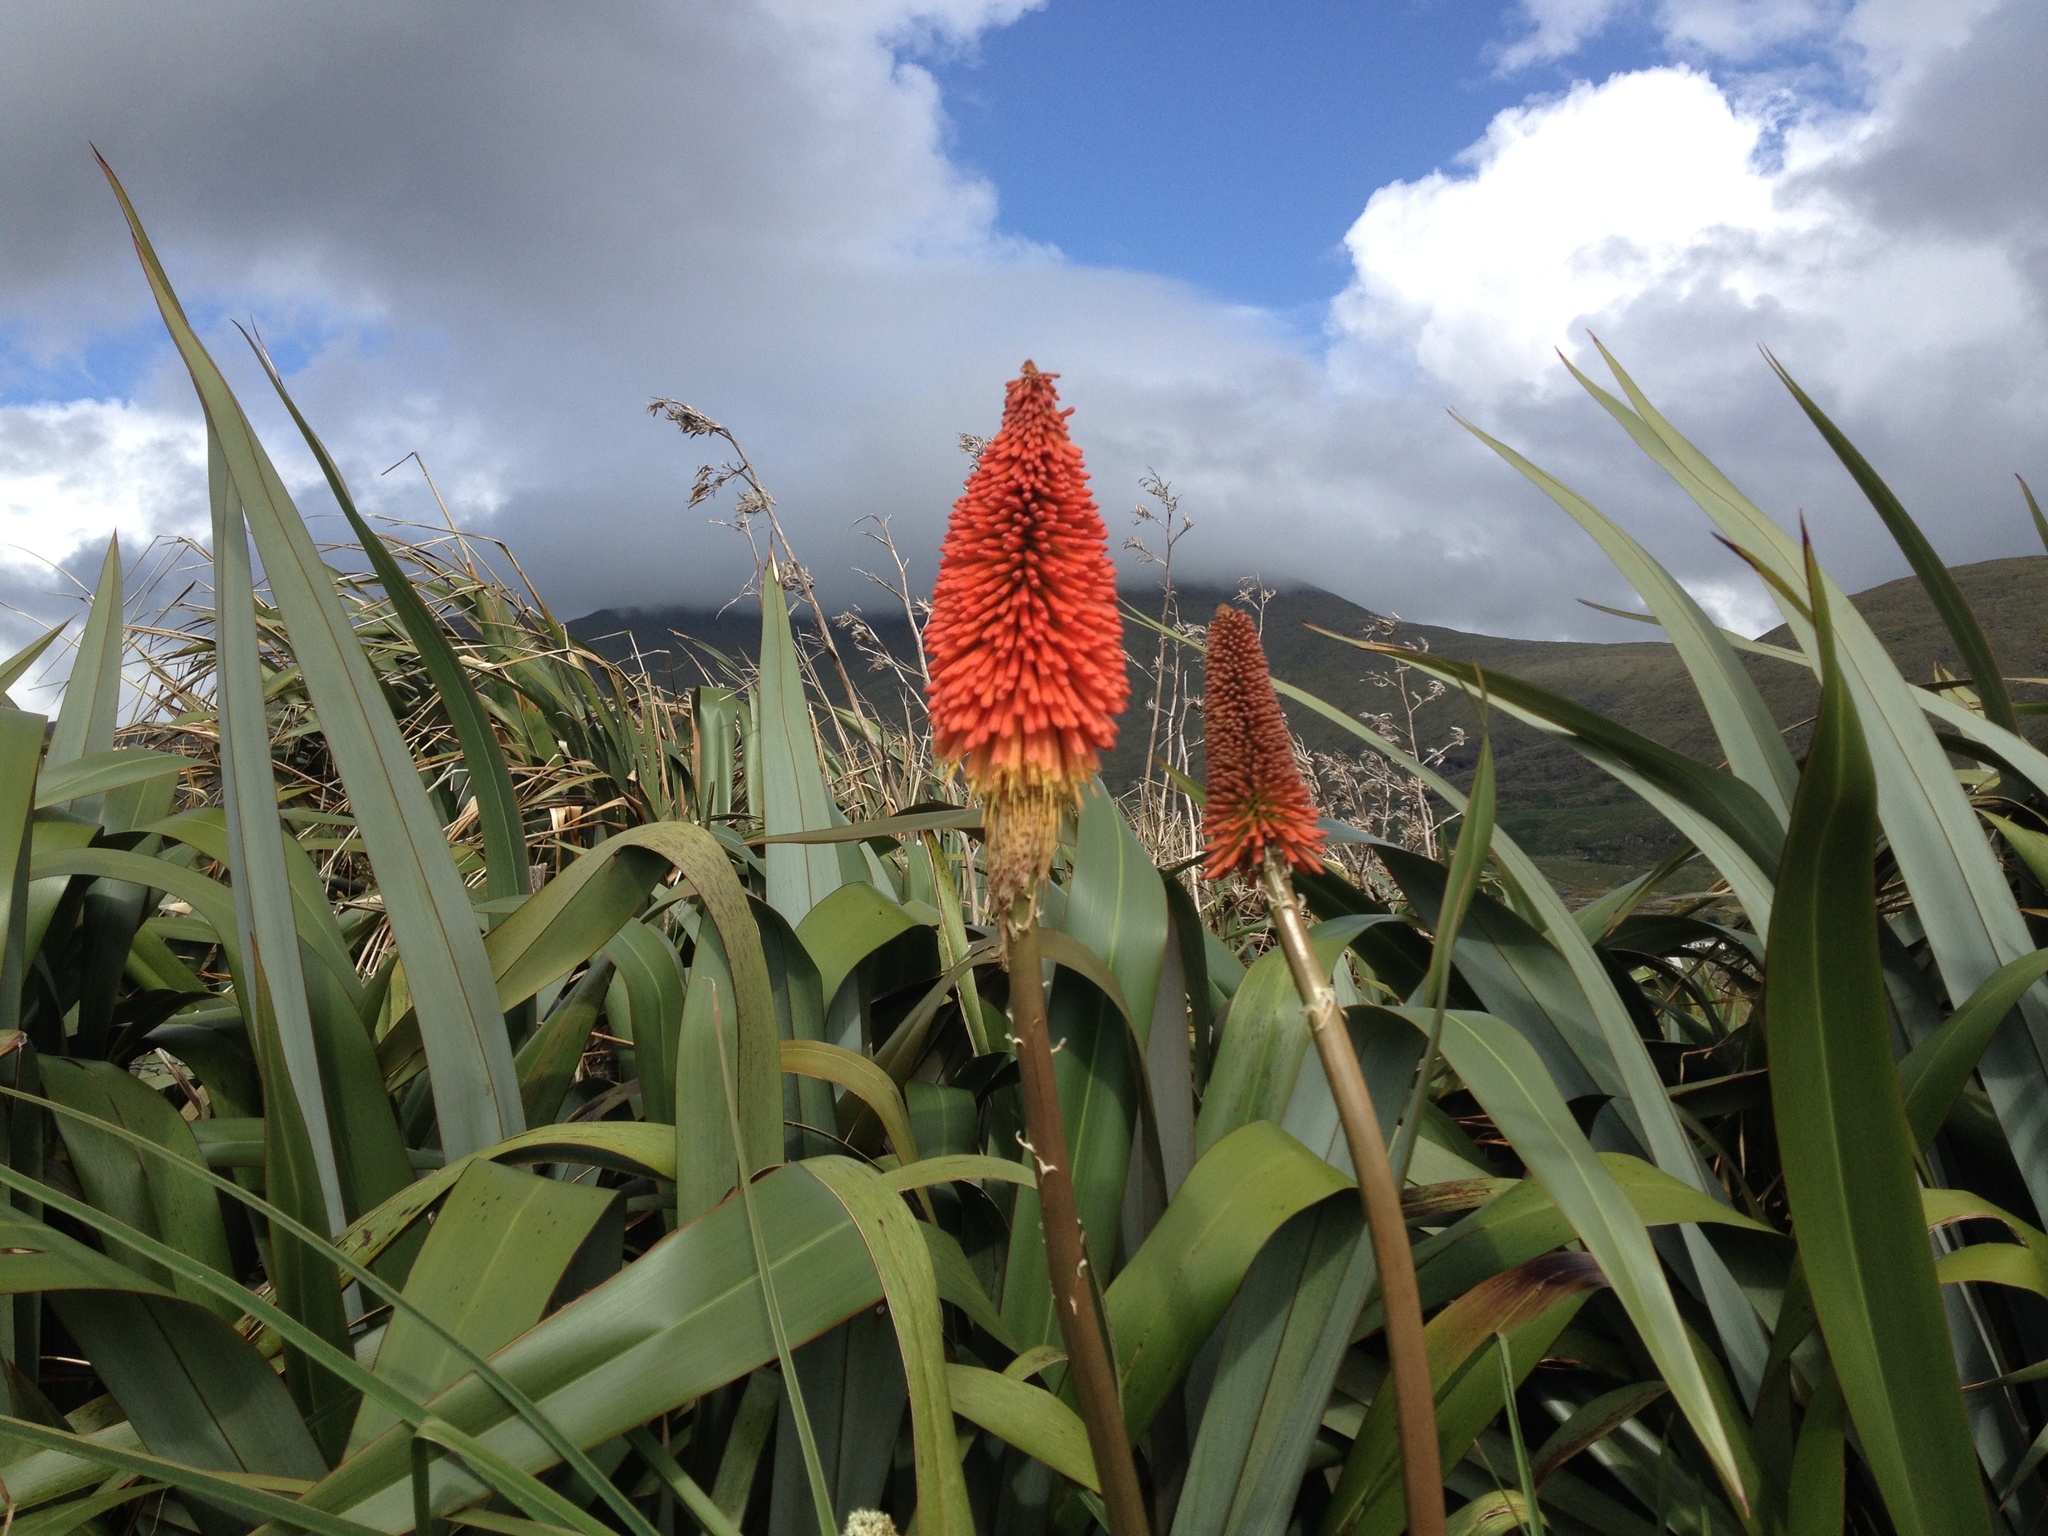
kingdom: Plantae
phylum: Tracheophyta
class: Liliopsida
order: Asparagales
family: Asphodelaceae
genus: Kniphofia
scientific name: Kniphofia uvaria
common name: Red-hot-poker
